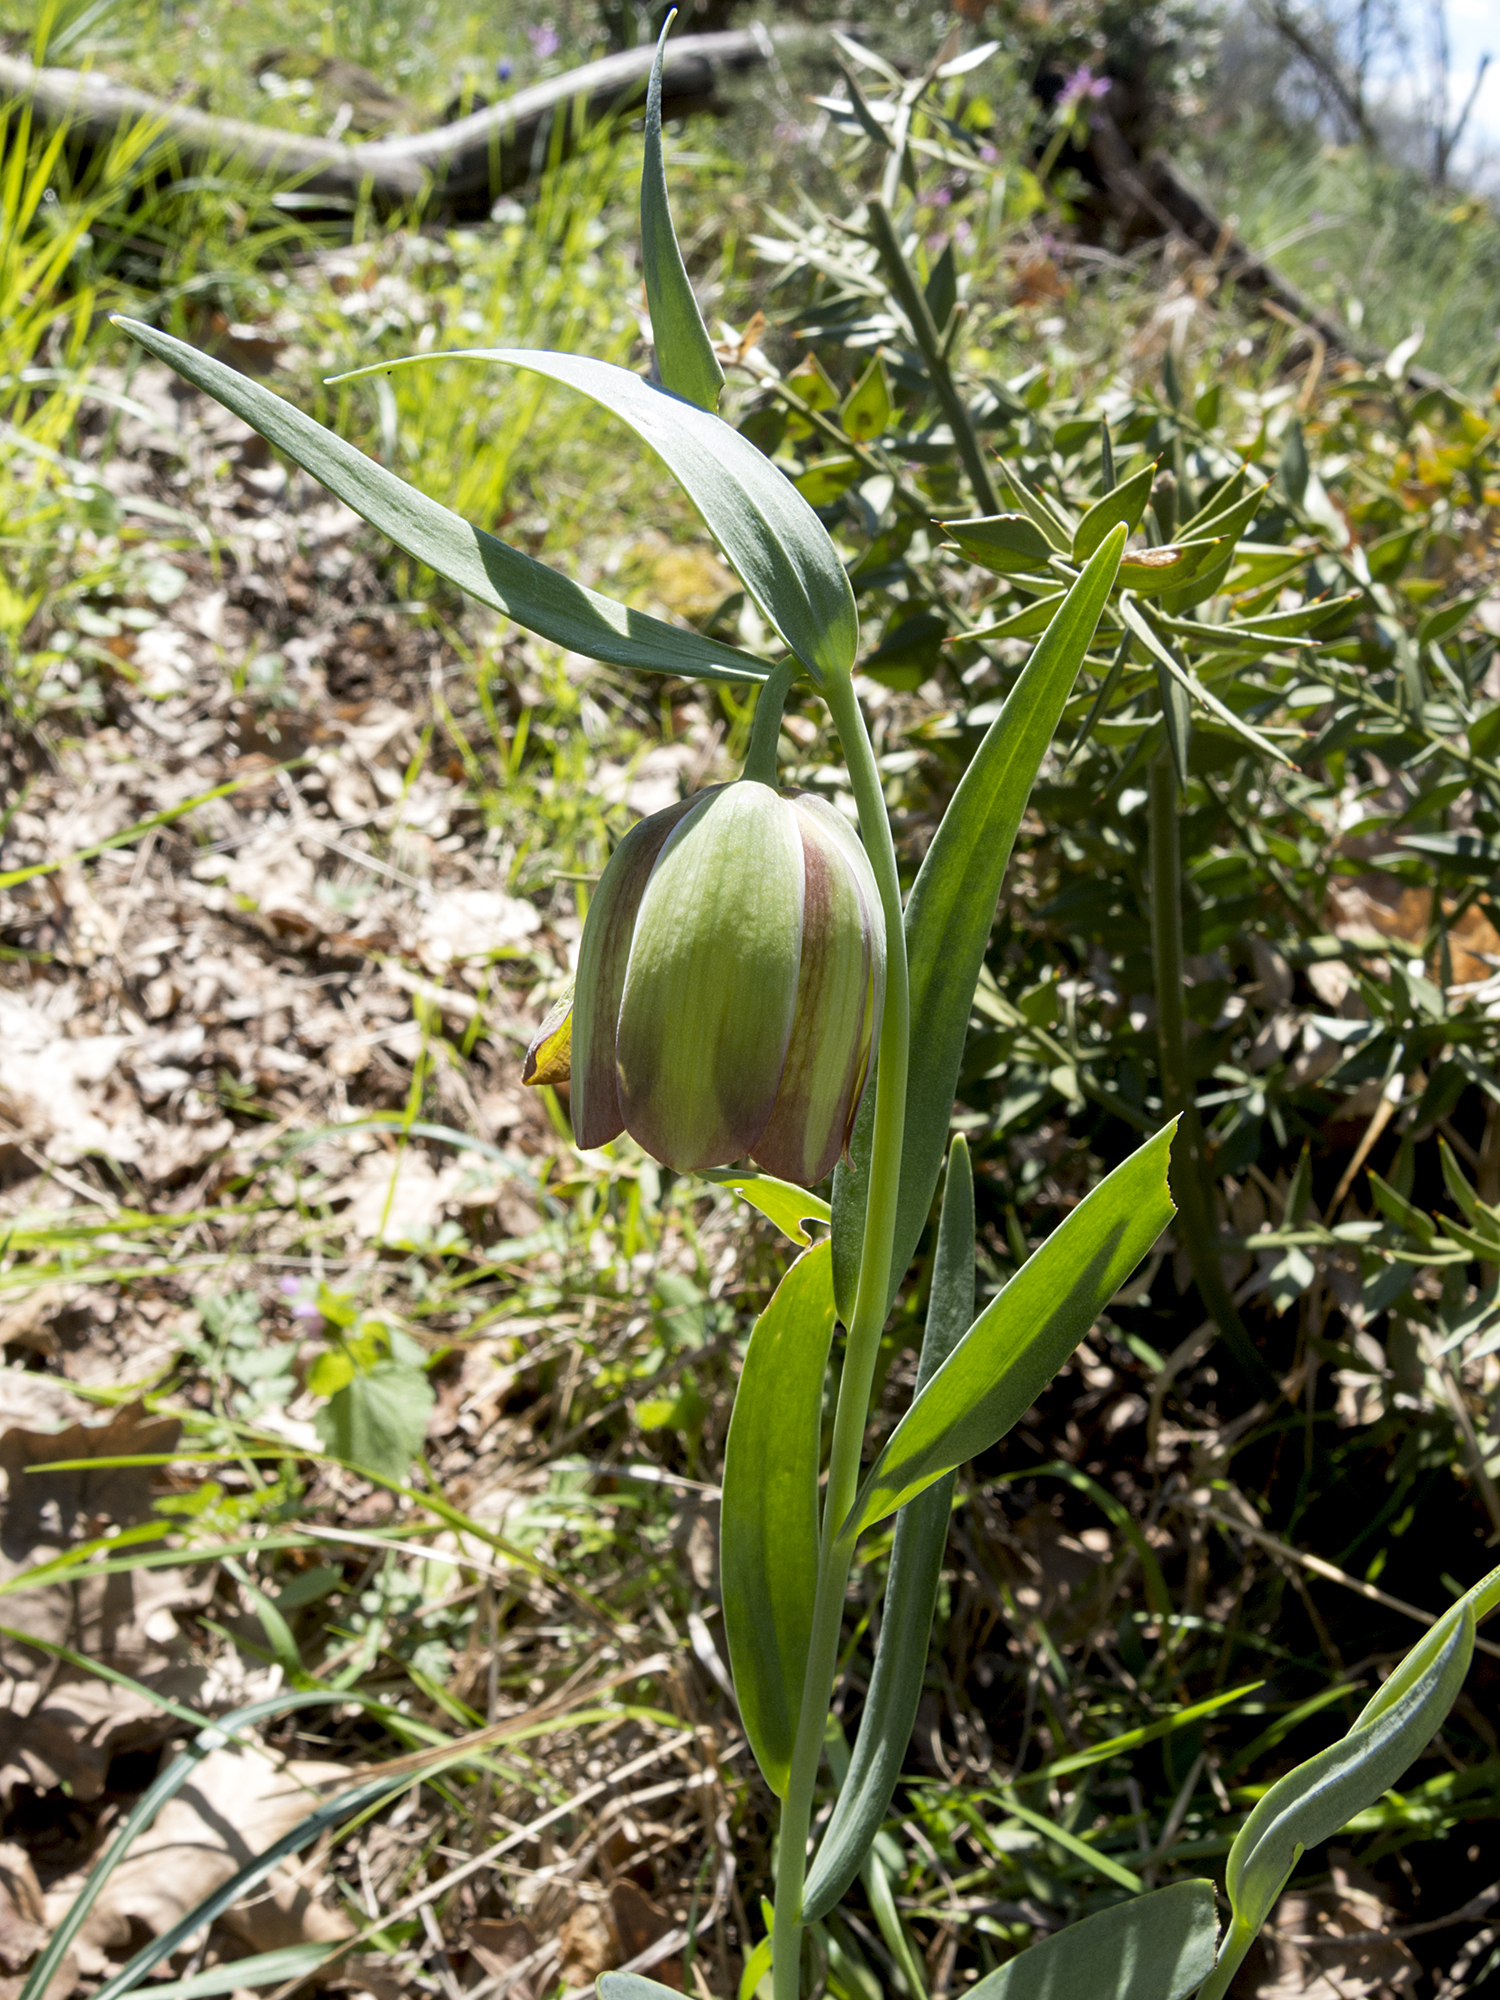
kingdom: Plantae
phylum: Tracheophyta
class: Liliopsida
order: Liliales
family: Liliaceae
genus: Fritillaria
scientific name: Fritillaria pontica
